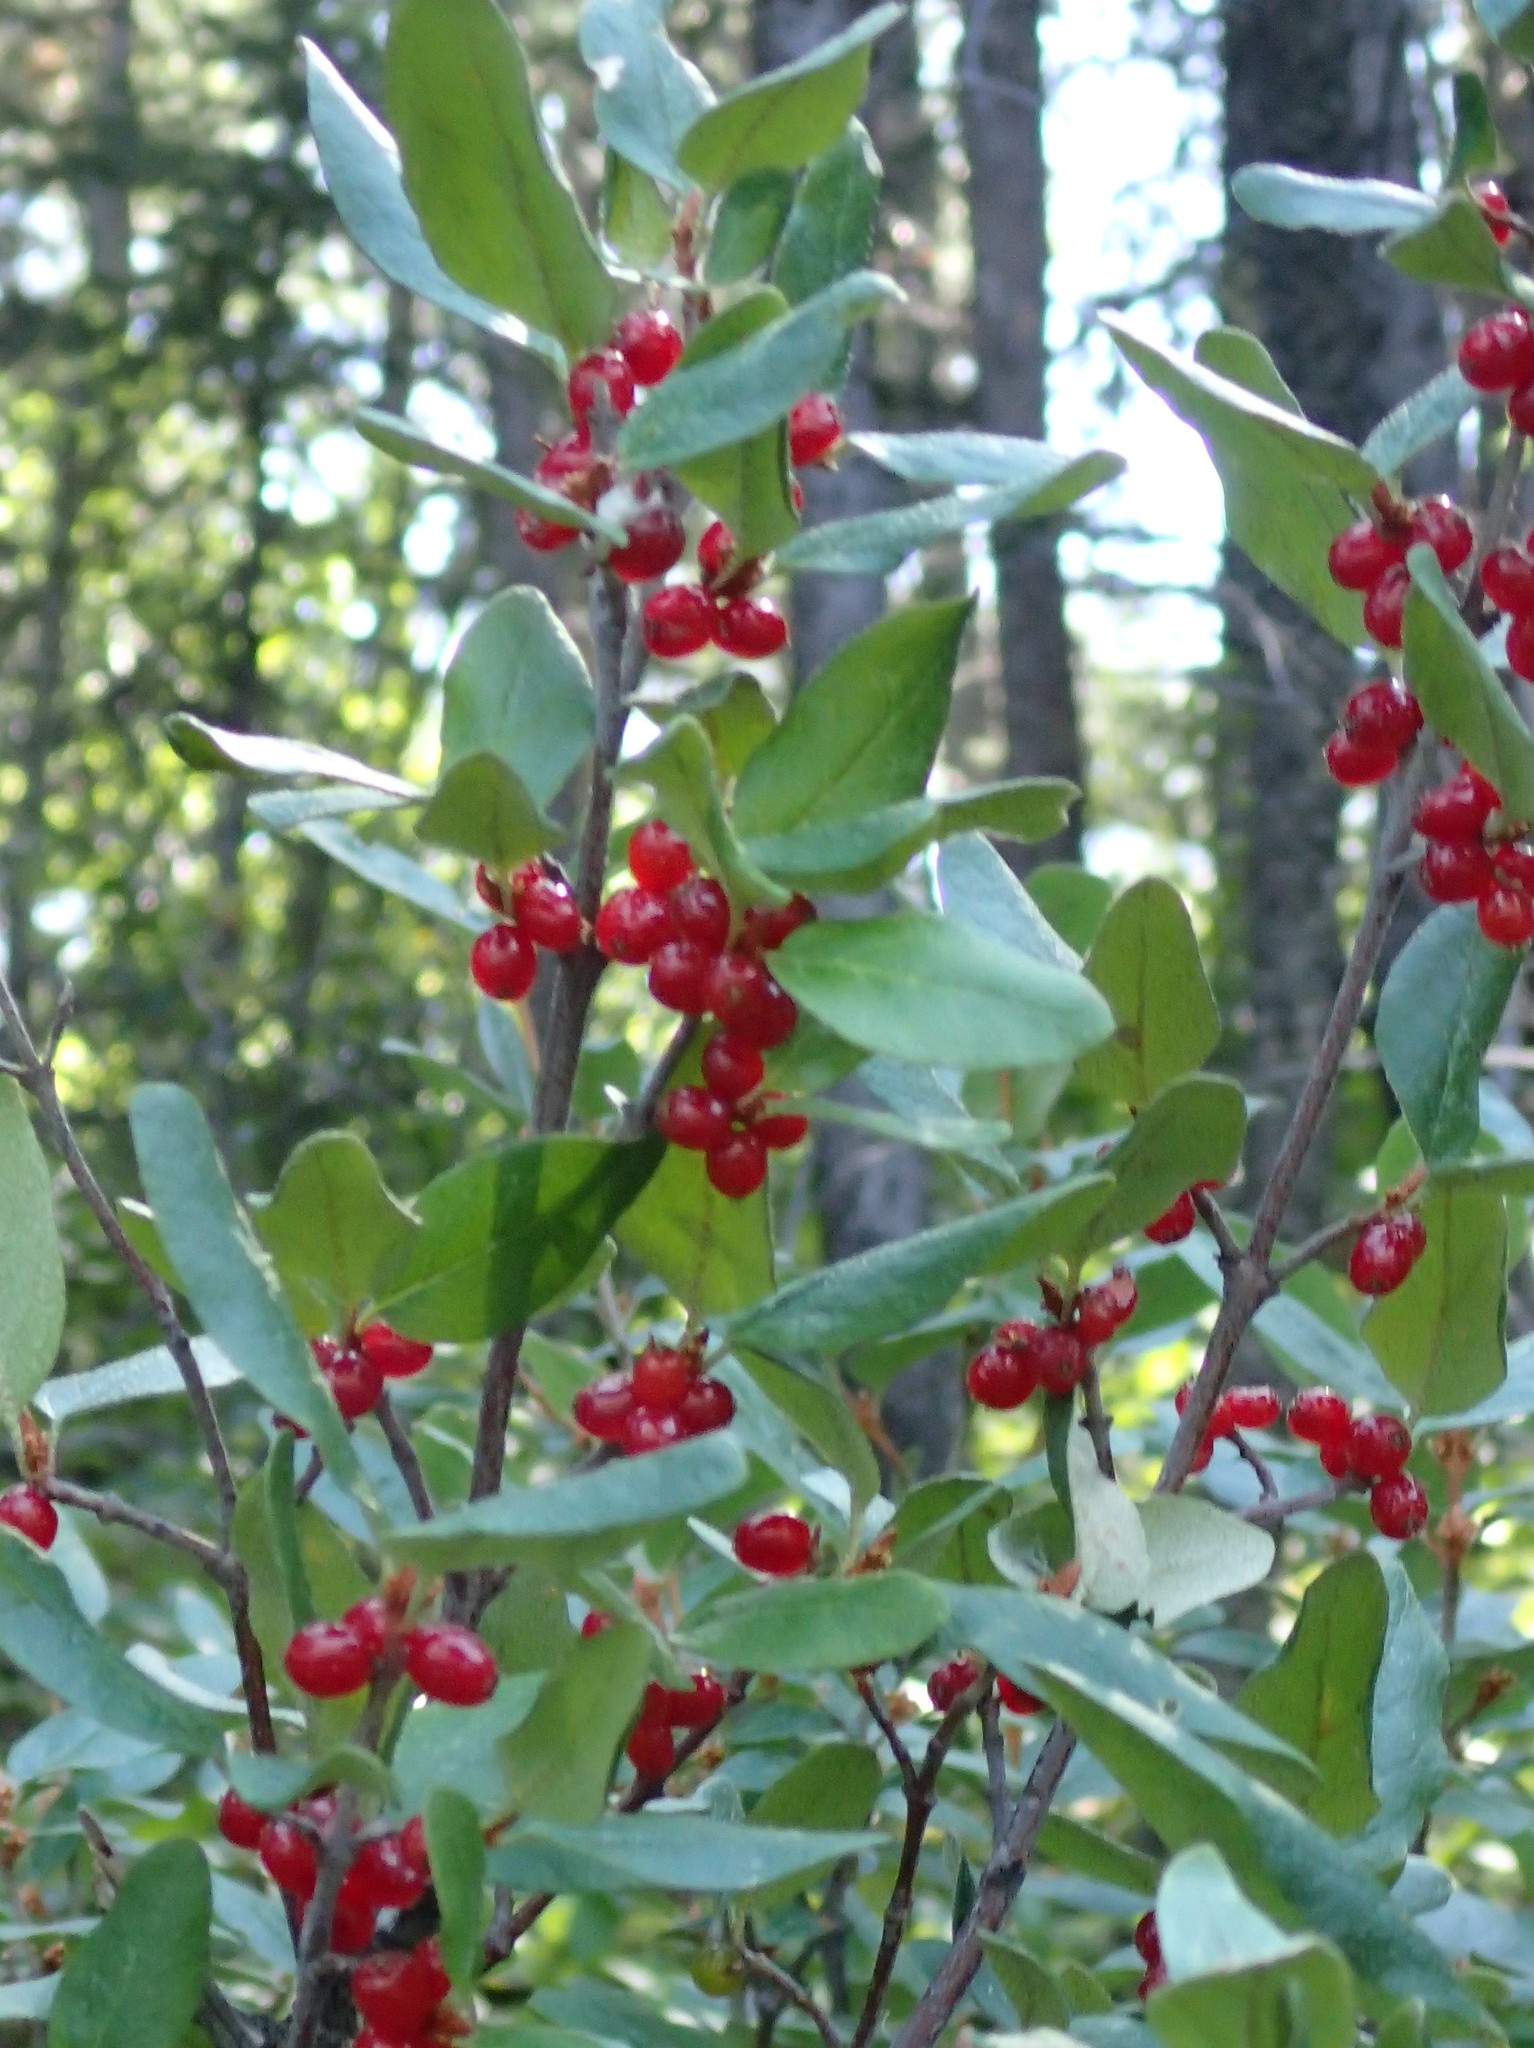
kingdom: Plantae
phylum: Tracheophyta
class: Magnoliopsida
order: Rosales
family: Elaeagnaceae
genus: Shepherdia
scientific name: Shepherdia canadensis
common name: Soapberry
